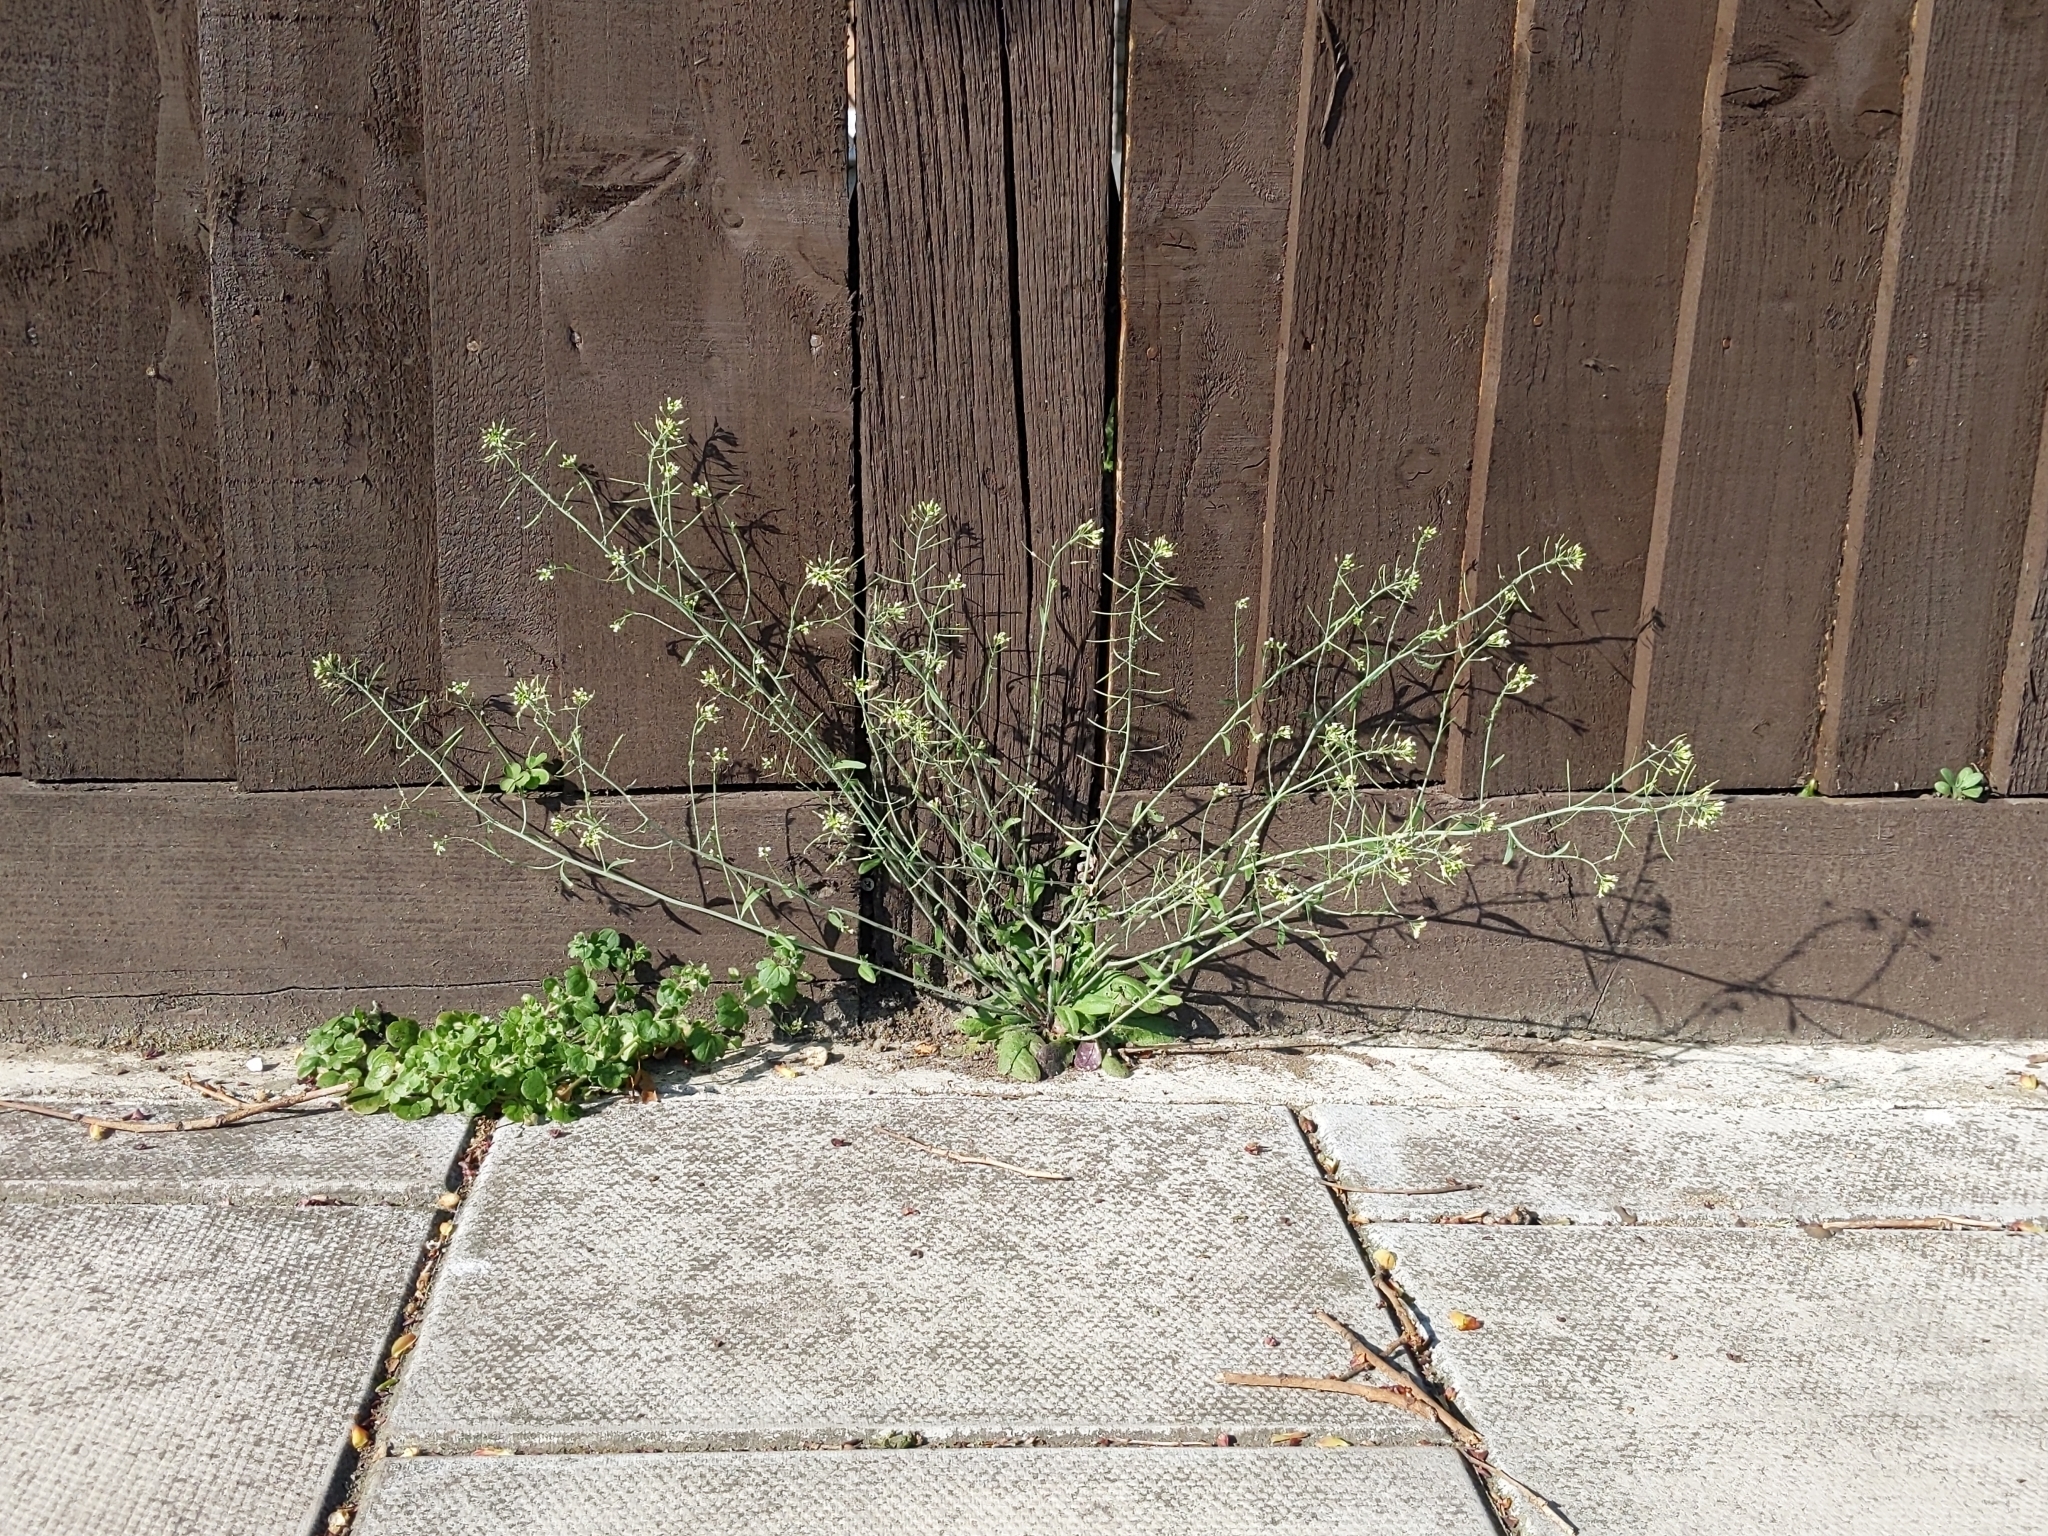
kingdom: Plantae
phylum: Tracheophyta
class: Magnoliopsida
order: Brassicales
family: Brassicaceae
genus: Arabidopsis
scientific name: Arabidopsis thaliana
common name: Thale cress
